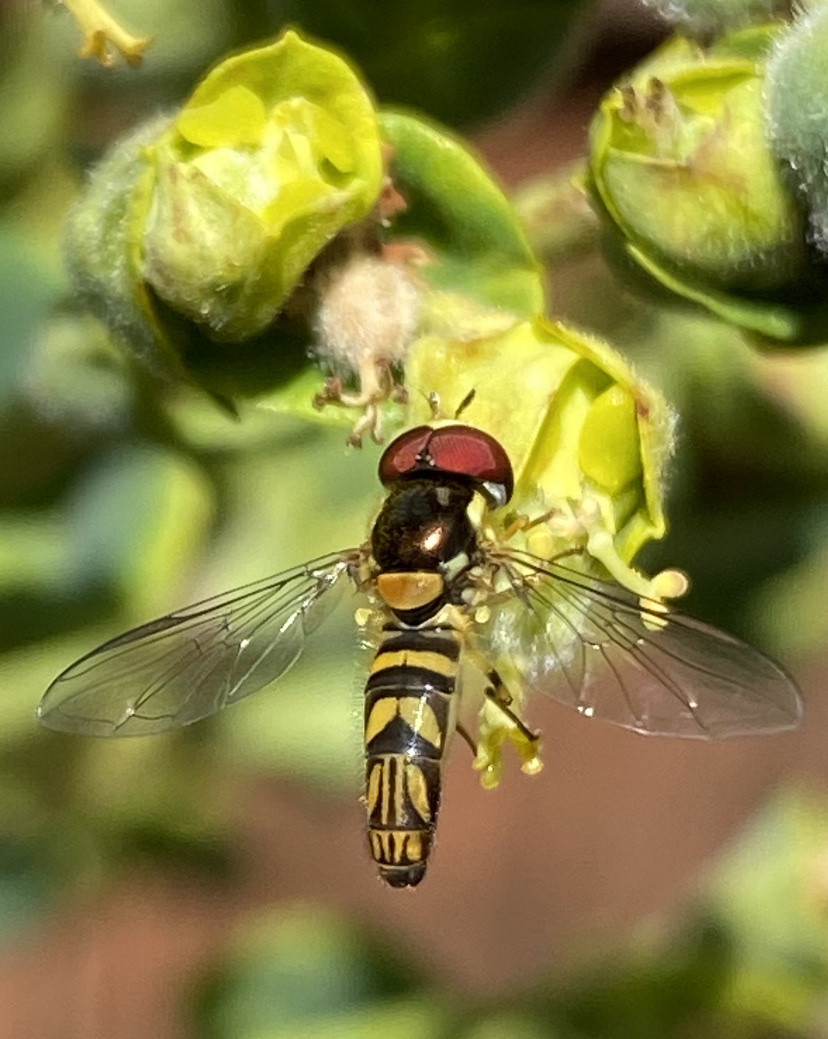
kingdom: Animalia
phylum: Arthropoda
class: Insecta
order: Diptera
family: Syrphidae
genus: Allograpta
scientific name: Allograpta obliqua
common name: Common oblique syrphid
